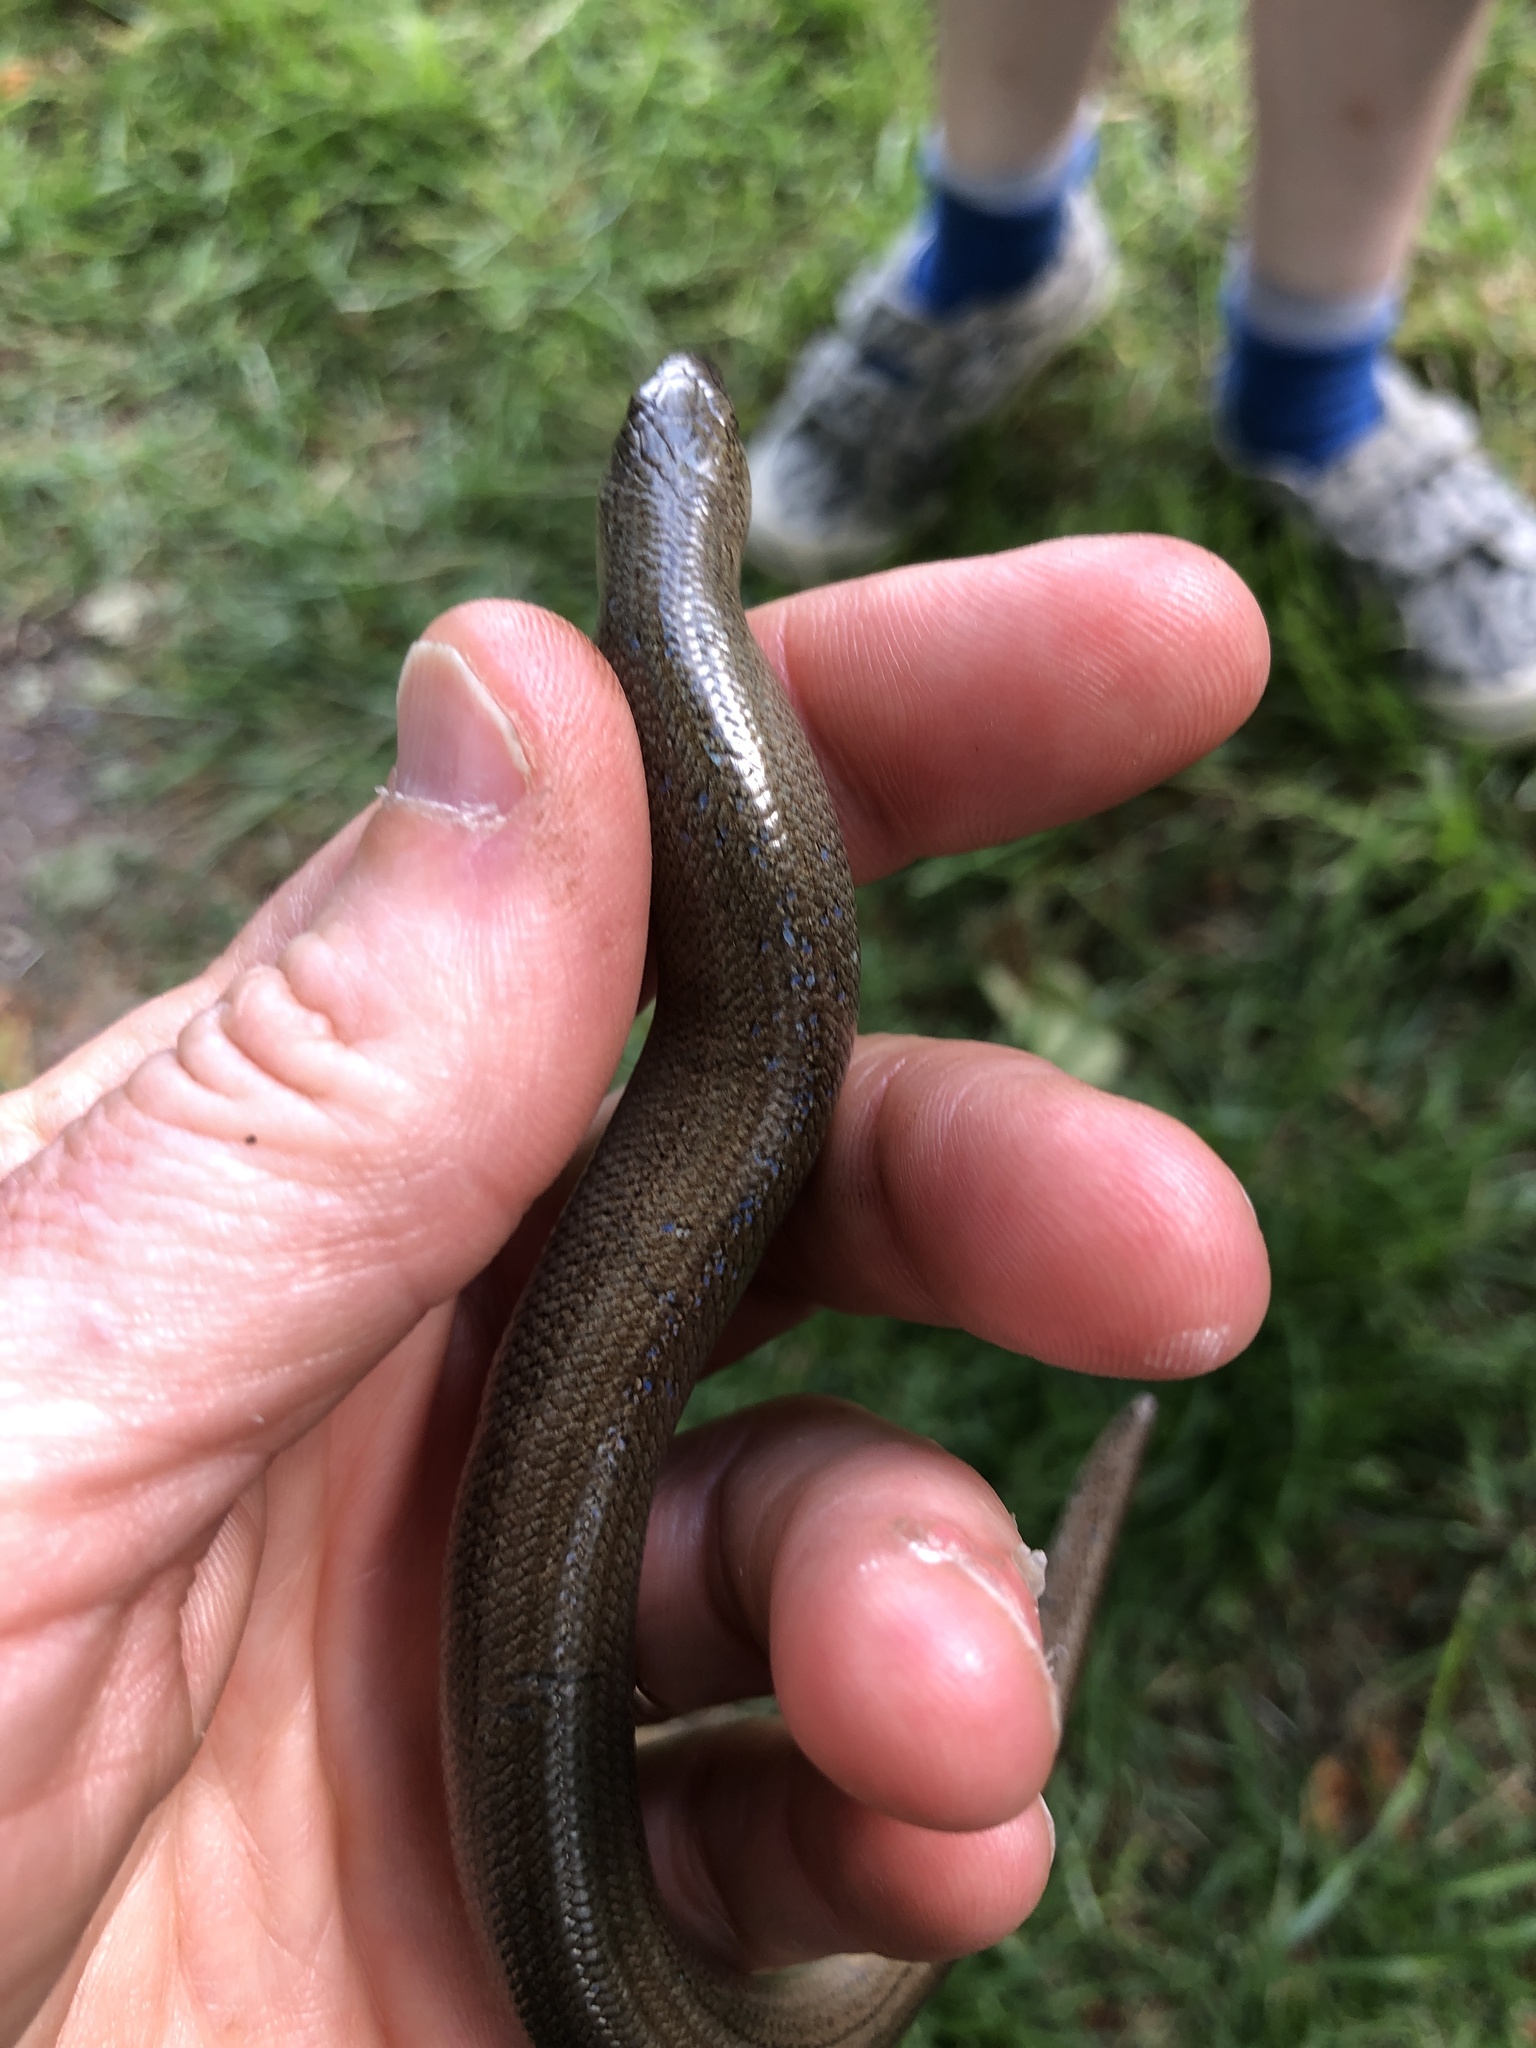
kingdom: Animalia
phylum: Chordata
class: Squamata
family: Anguidae
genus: Anguis
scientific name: Anguis fragilis
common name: Slow worm
